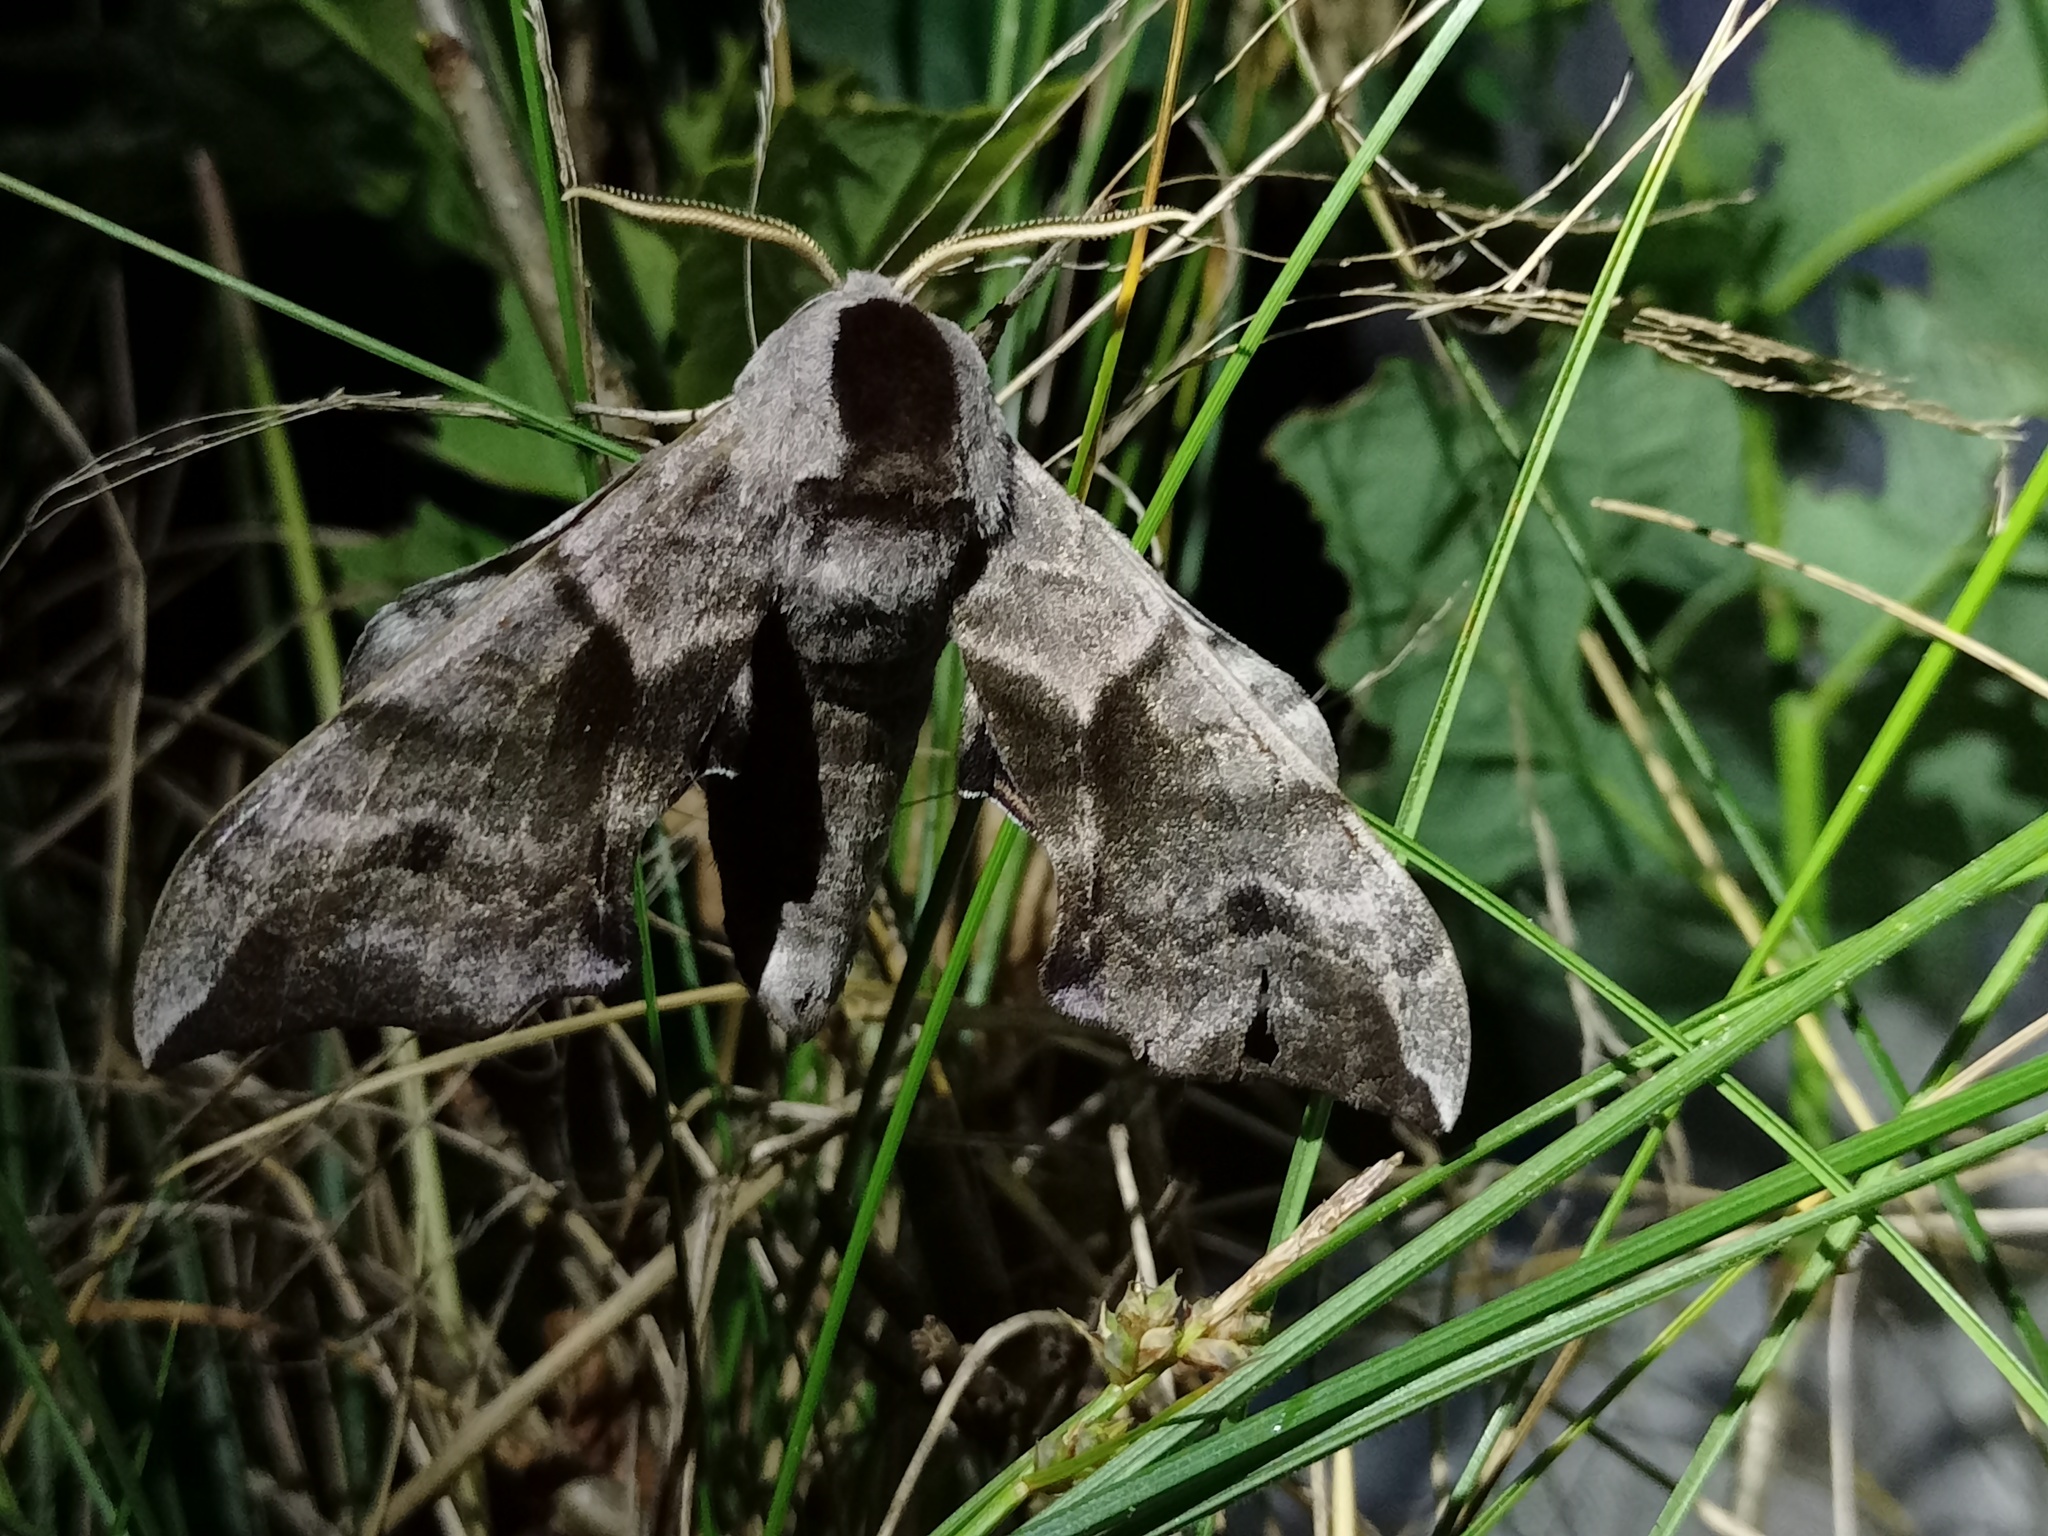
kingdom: Animalia
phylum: Arthropoda
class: Insecta
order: Lepidoptera
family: Sphingidae
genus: Smerinthus
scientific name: Smerinthus ocellata
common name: Eyed hawk-moth
